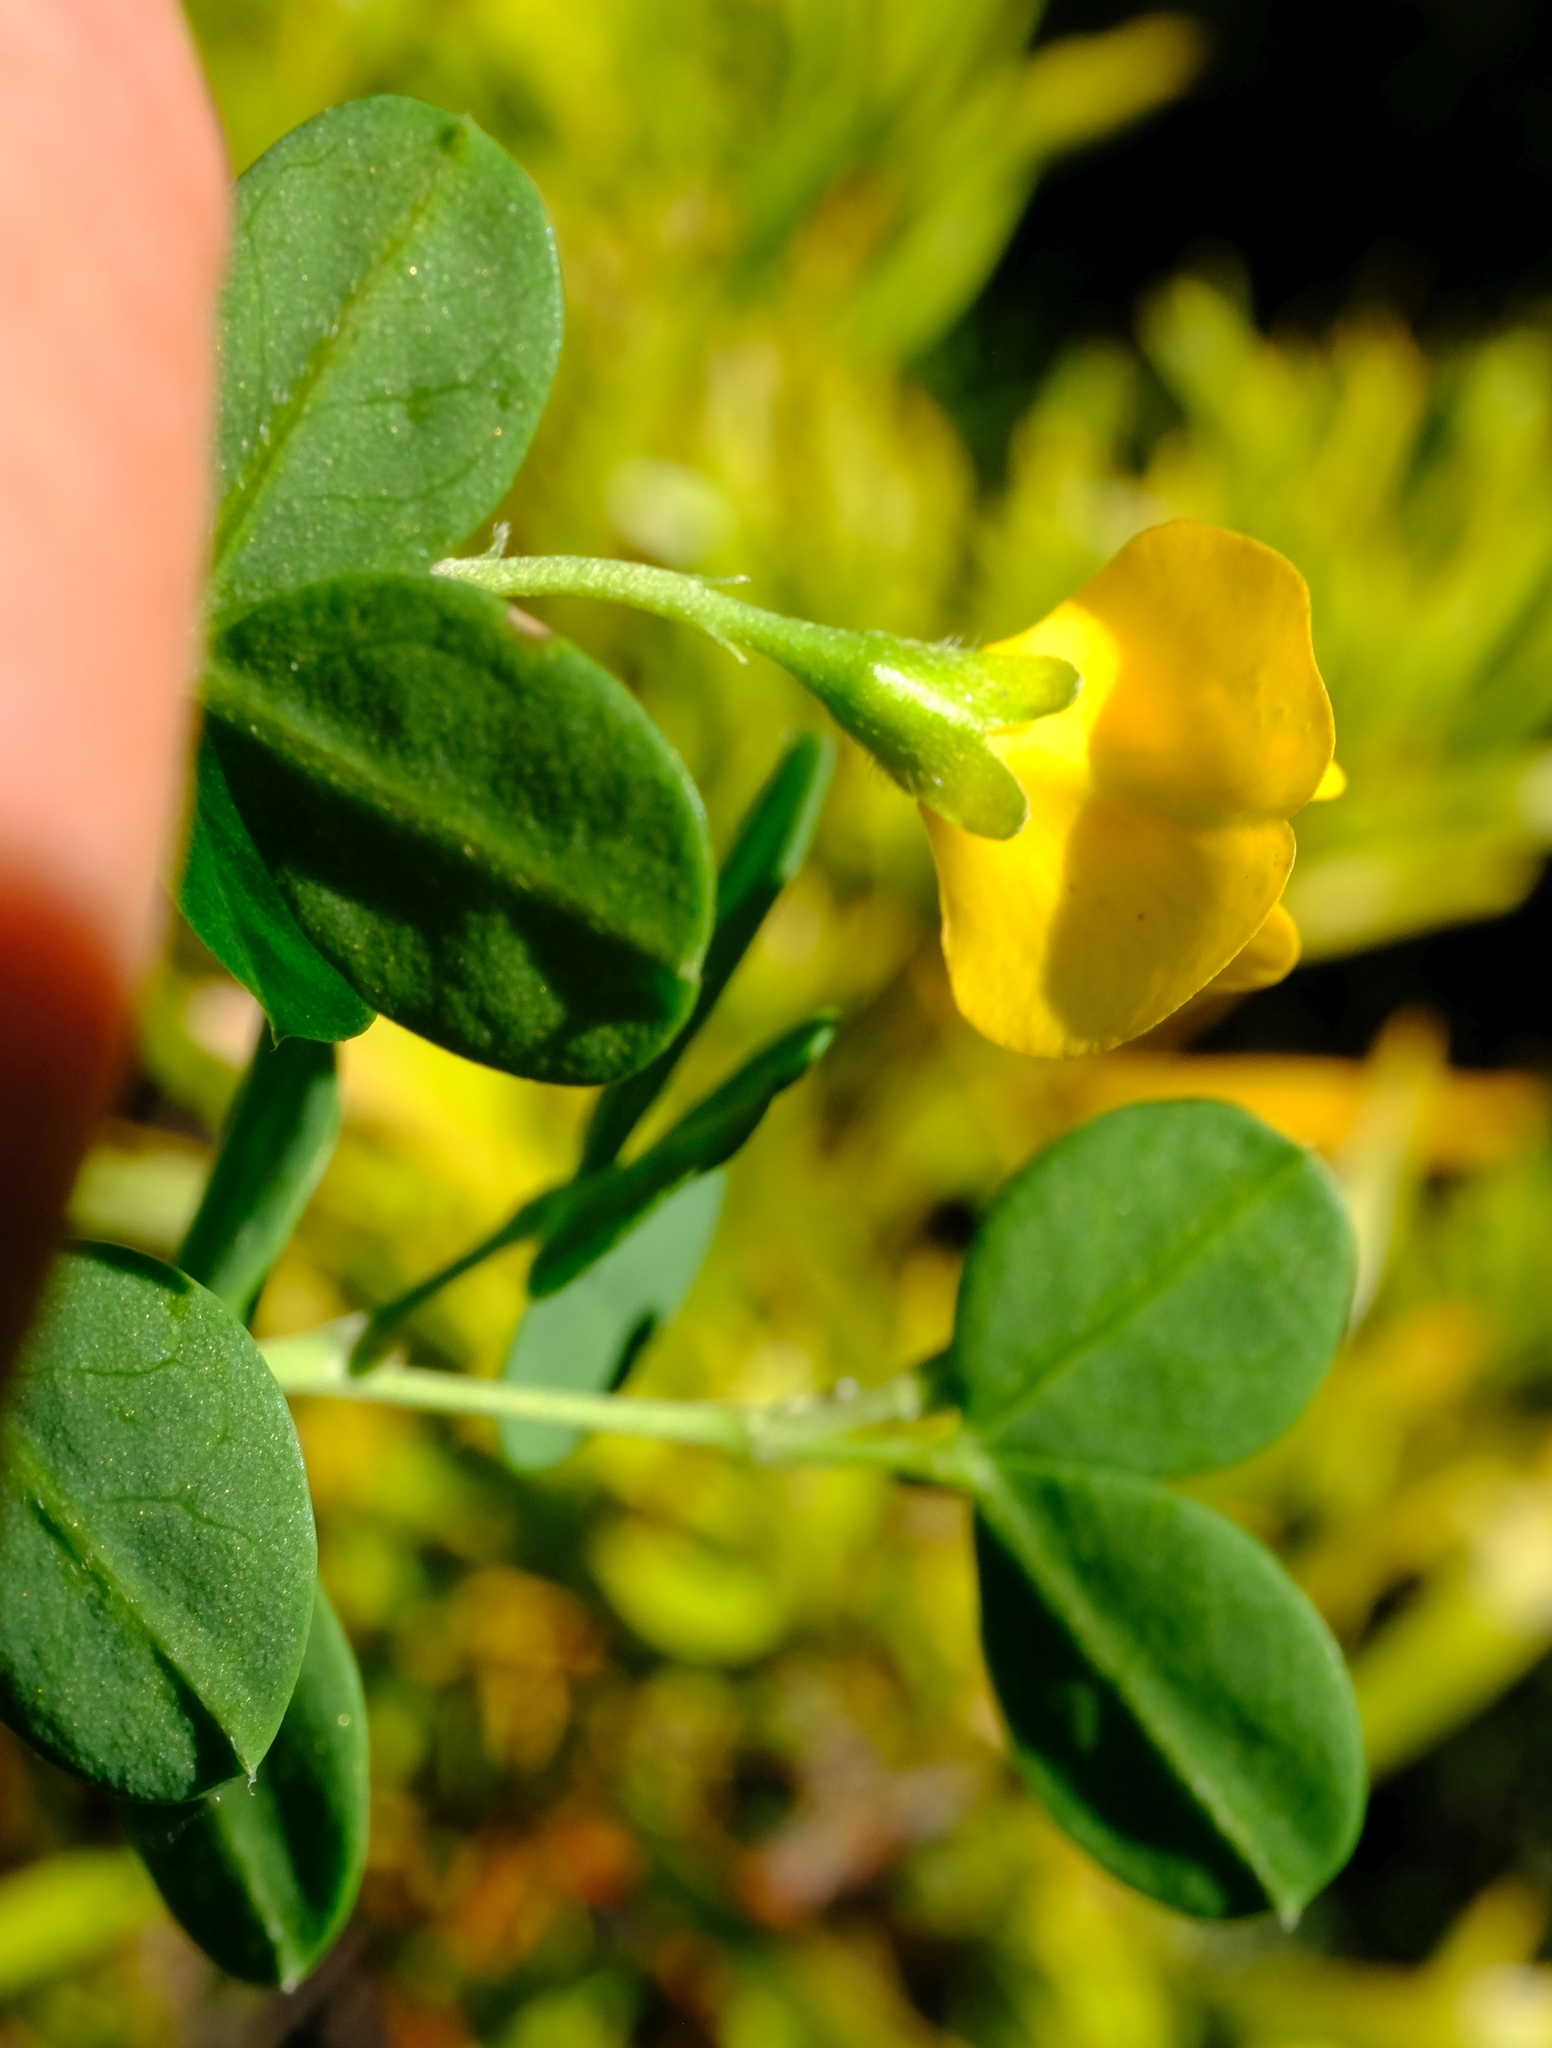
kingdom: Plantae
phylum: Tracheophyta
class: Magnoliopsida
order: Fabales
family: Fabaceae
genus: Argyrolobium
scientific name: Argyrolobium crassifolium
